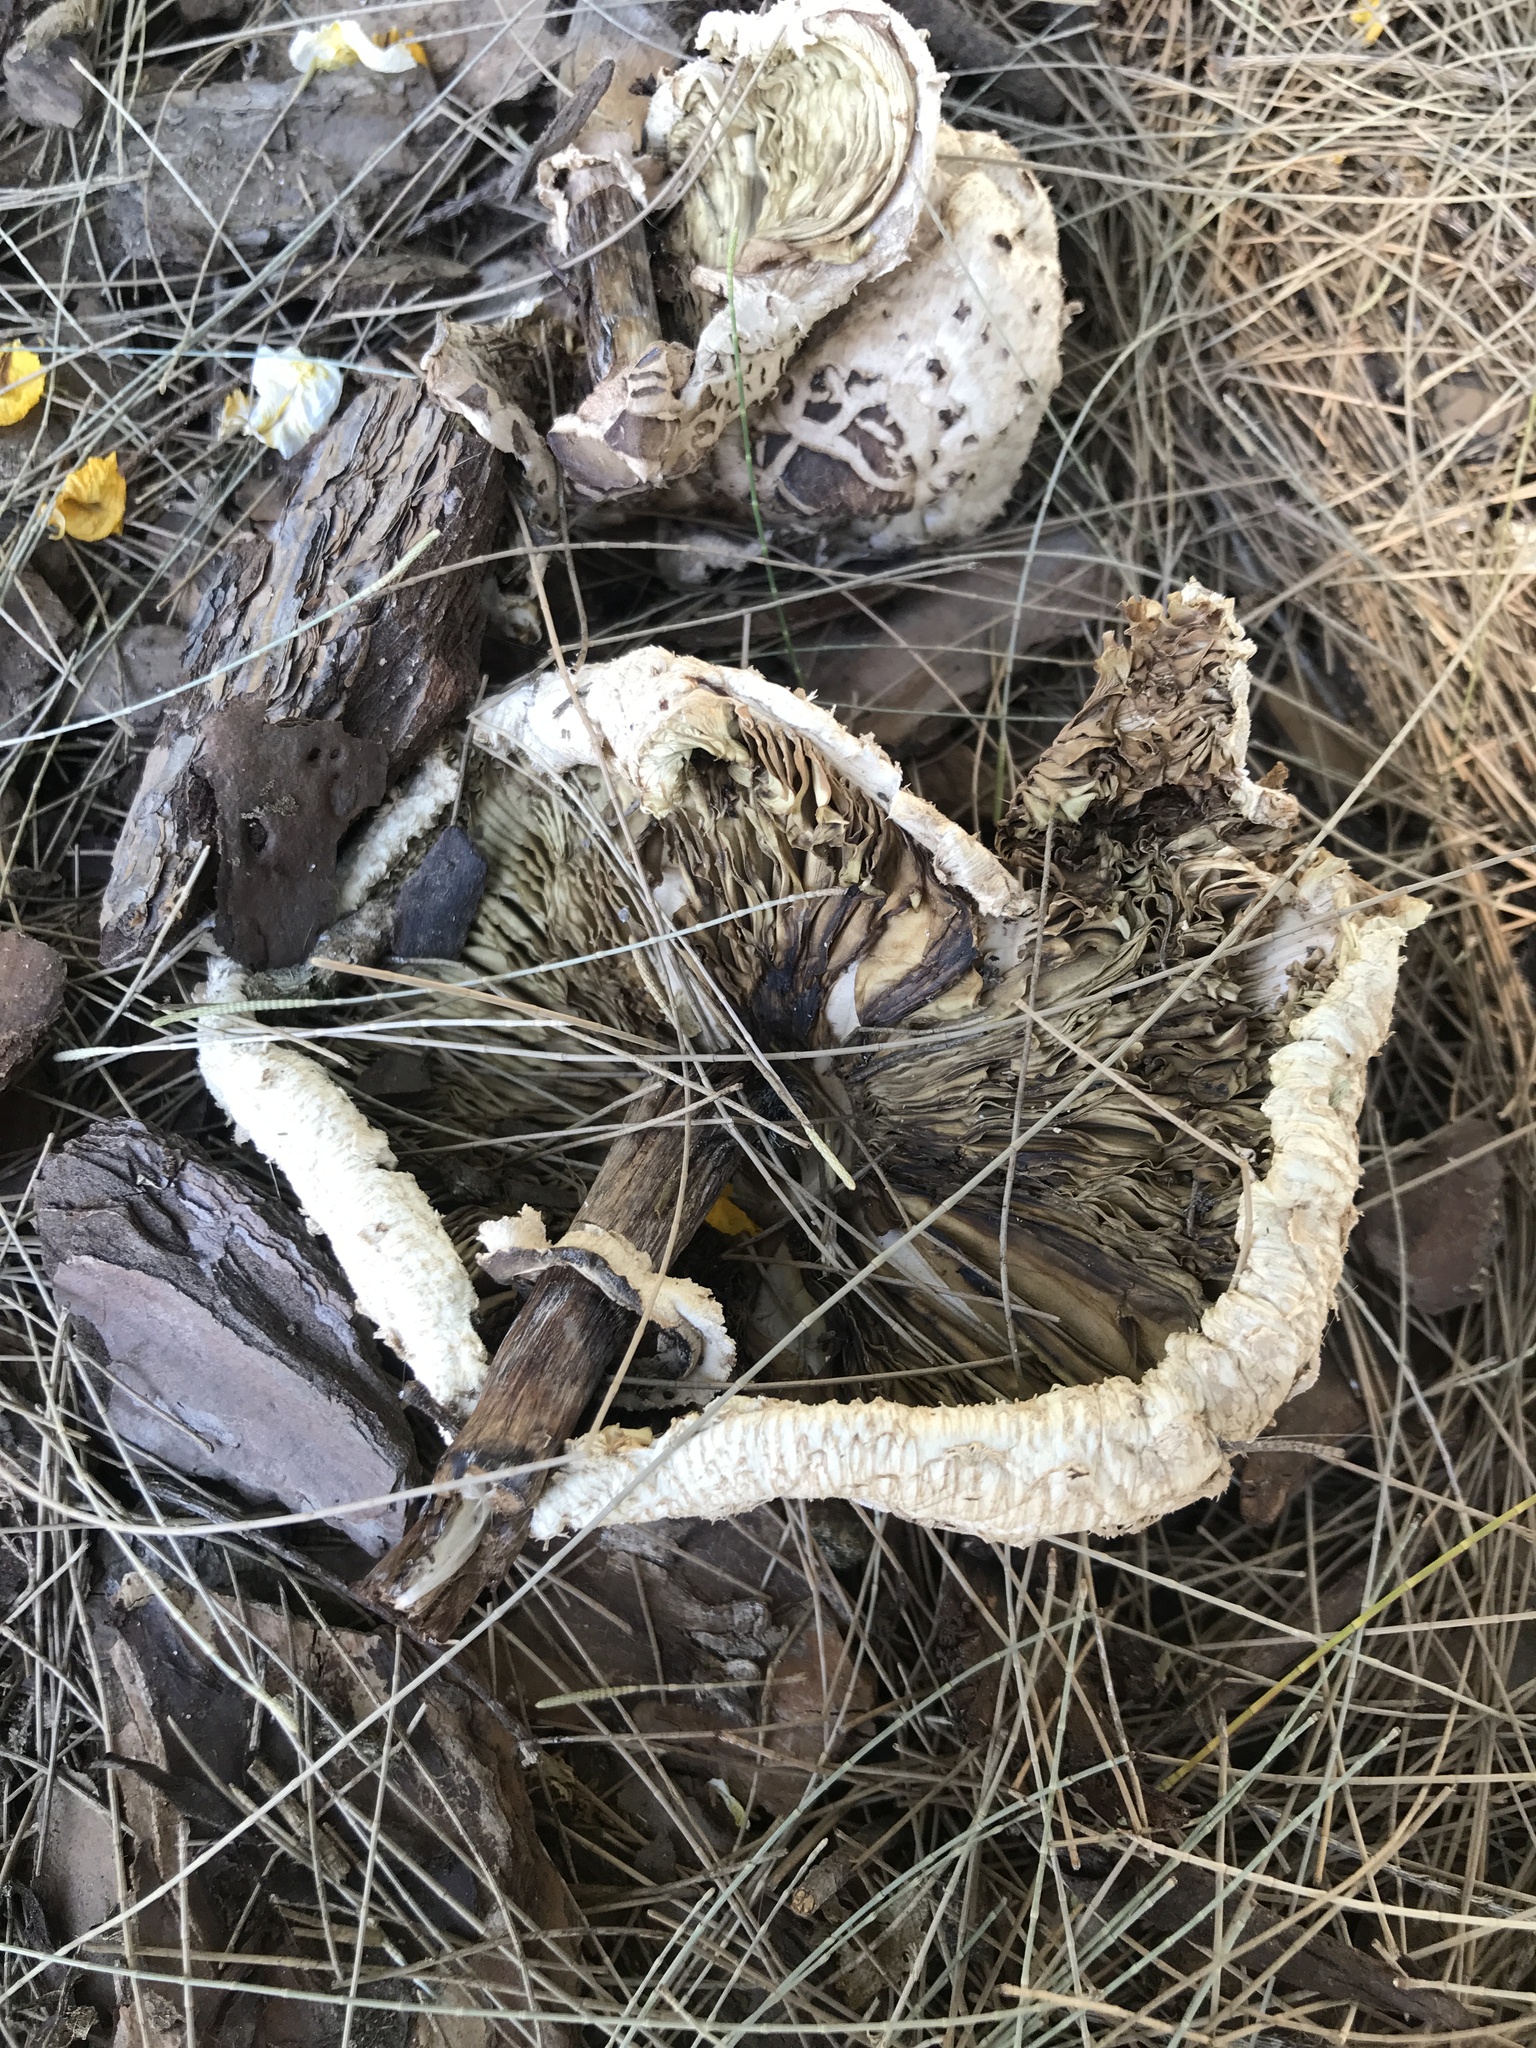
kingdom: Fungi
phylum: Basidiomycota
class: Agaricomycetes
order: Agaricales
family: Agaricaceae
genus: Chlorophyllum
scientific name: Chlorophyllum molybdites
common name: False parasol
